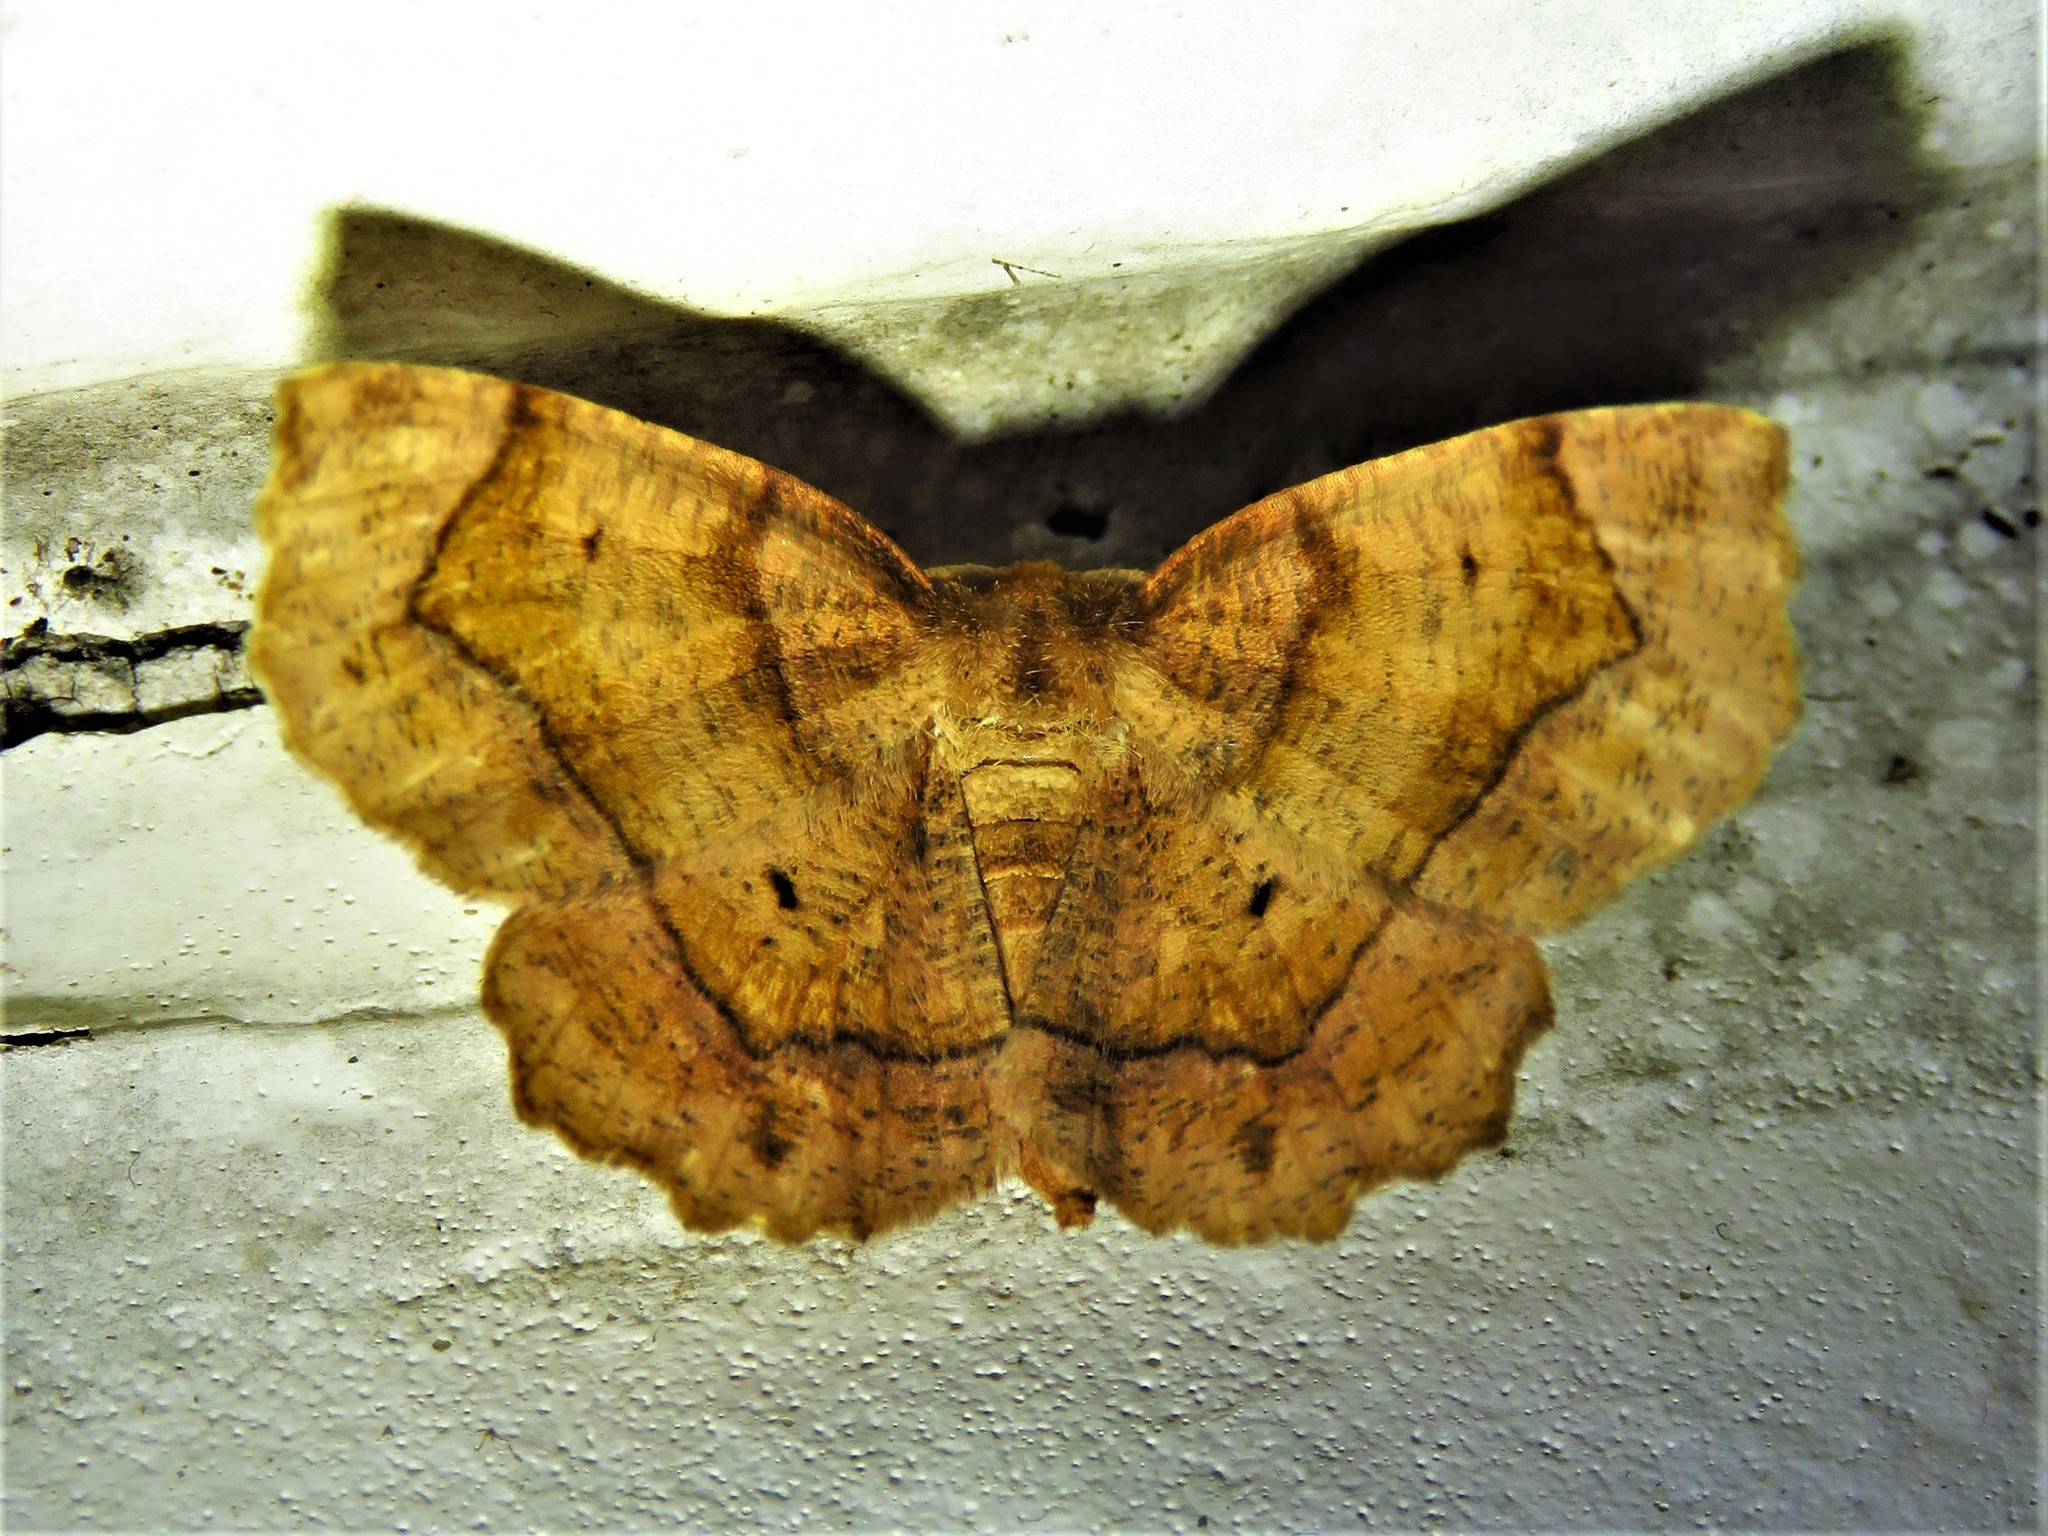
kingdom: Animalia
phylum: Arthropoda
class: Insecta
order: Lepidoptera
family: Geometridae
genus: Metarranthis
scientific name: Metarranthis homuraria
